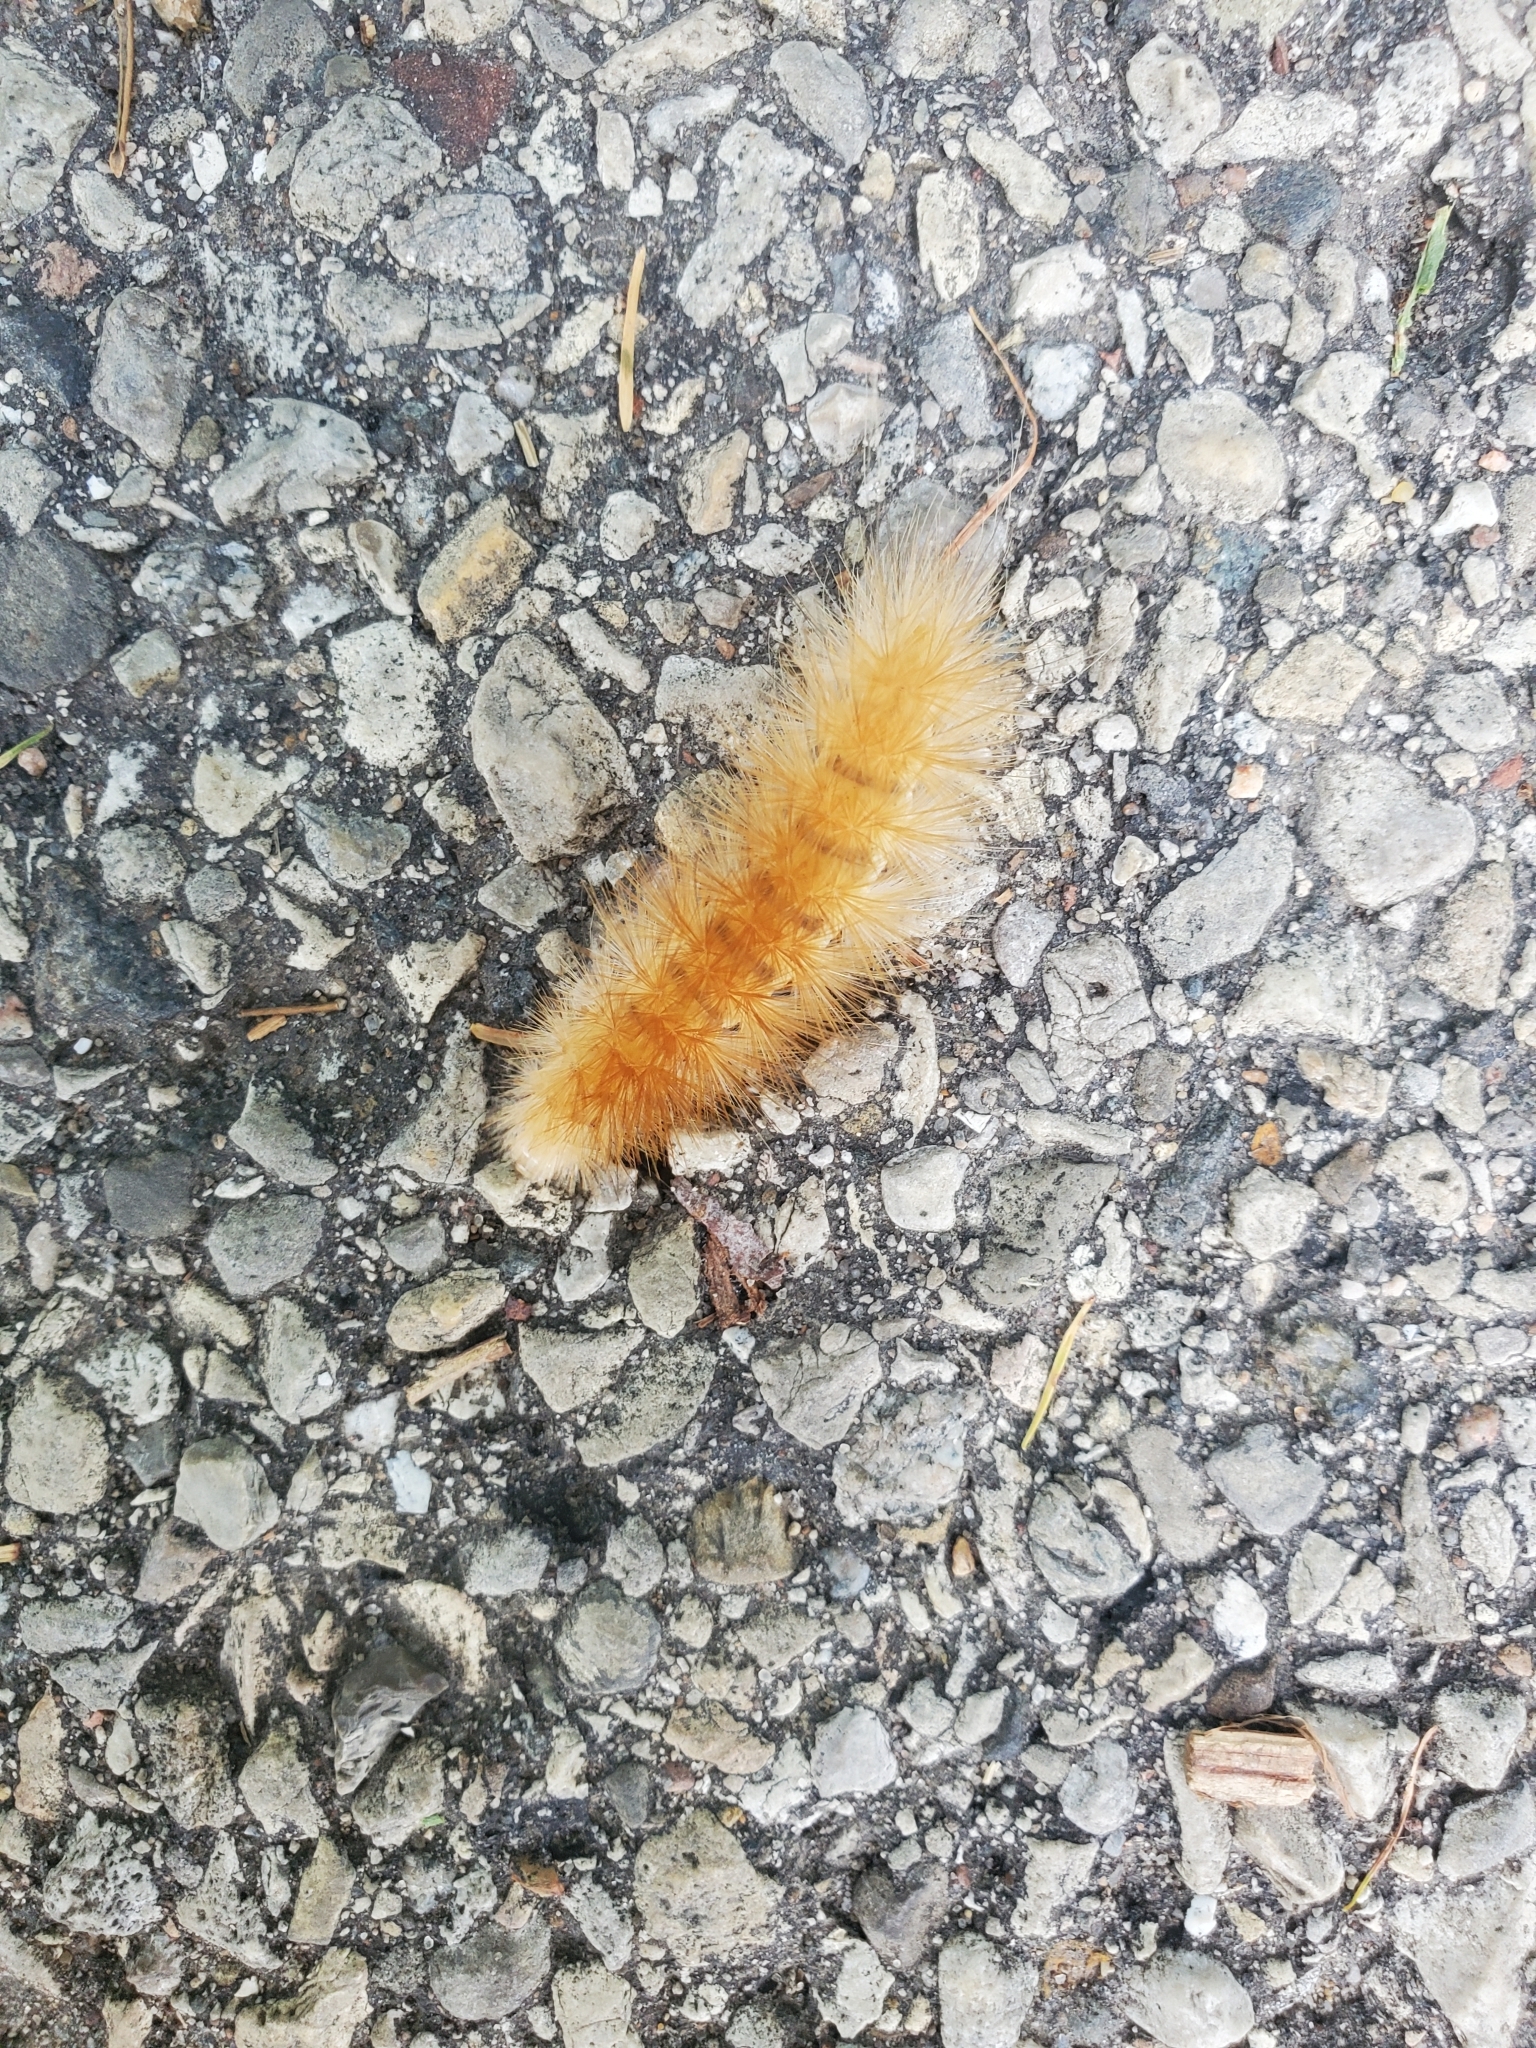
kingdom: Animalia
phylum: Arthropoda
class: Insecta
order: Lepidoptera
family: Erebidae
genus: Spilosoma
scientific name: Spilosoma virginica
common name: Virginia tiger moth
